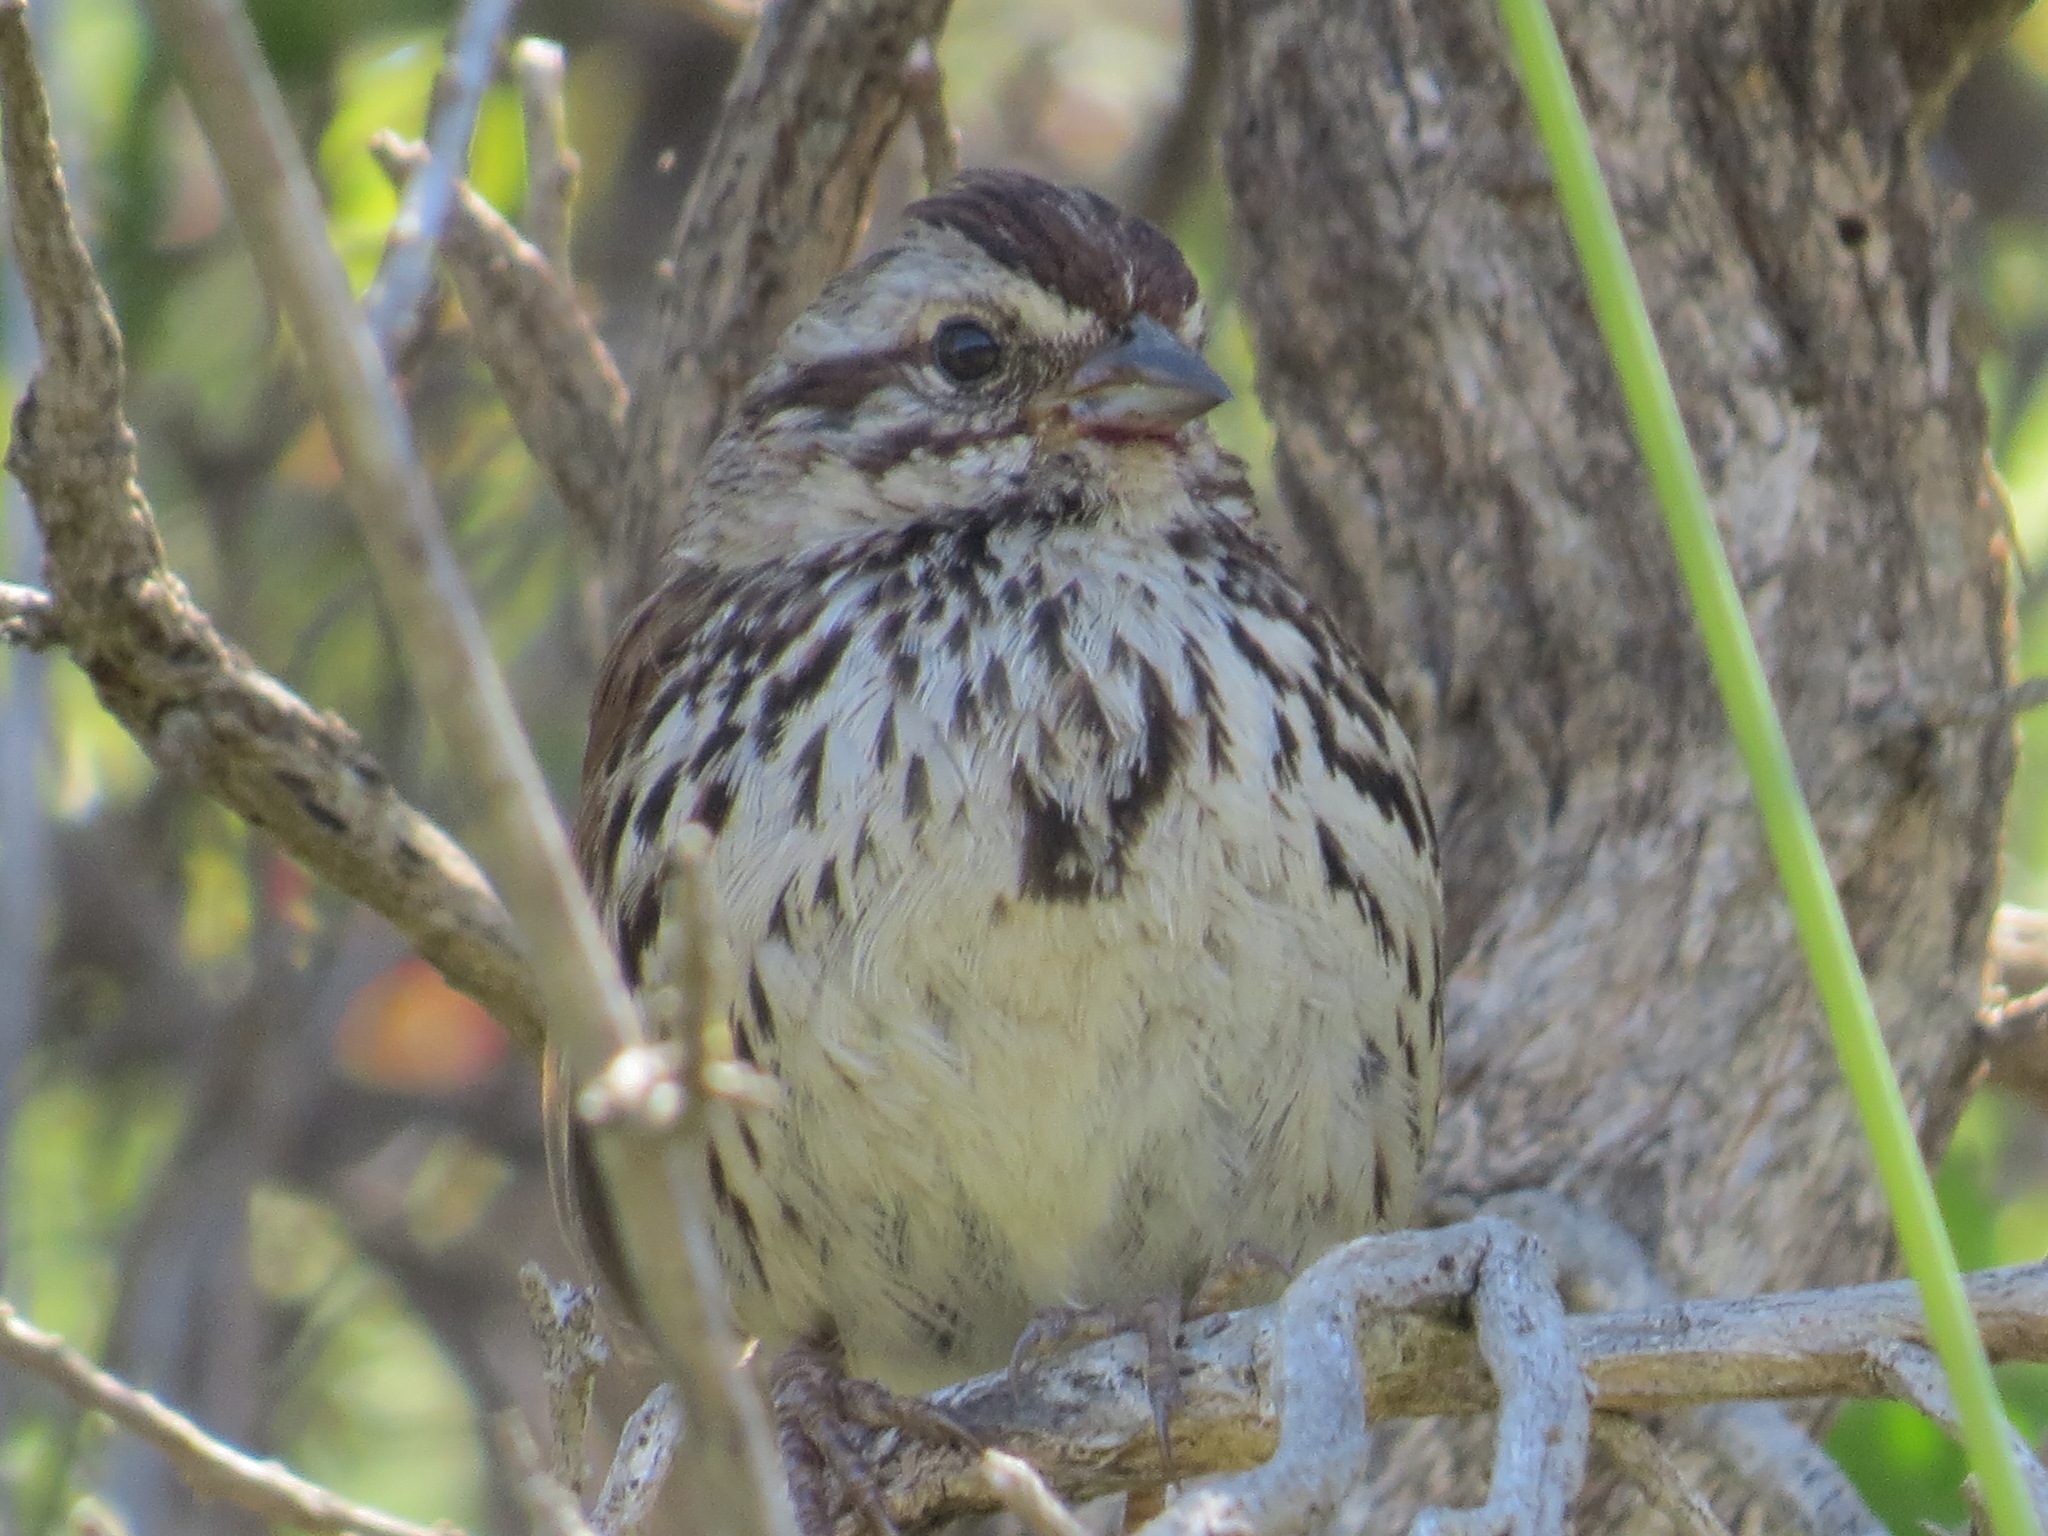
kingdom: Animalia
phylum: Chordata
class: Aves
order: Passeriformes
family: Passerellidae
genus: Melospiza
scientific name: Melospiza melodia
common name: Song sparrow
